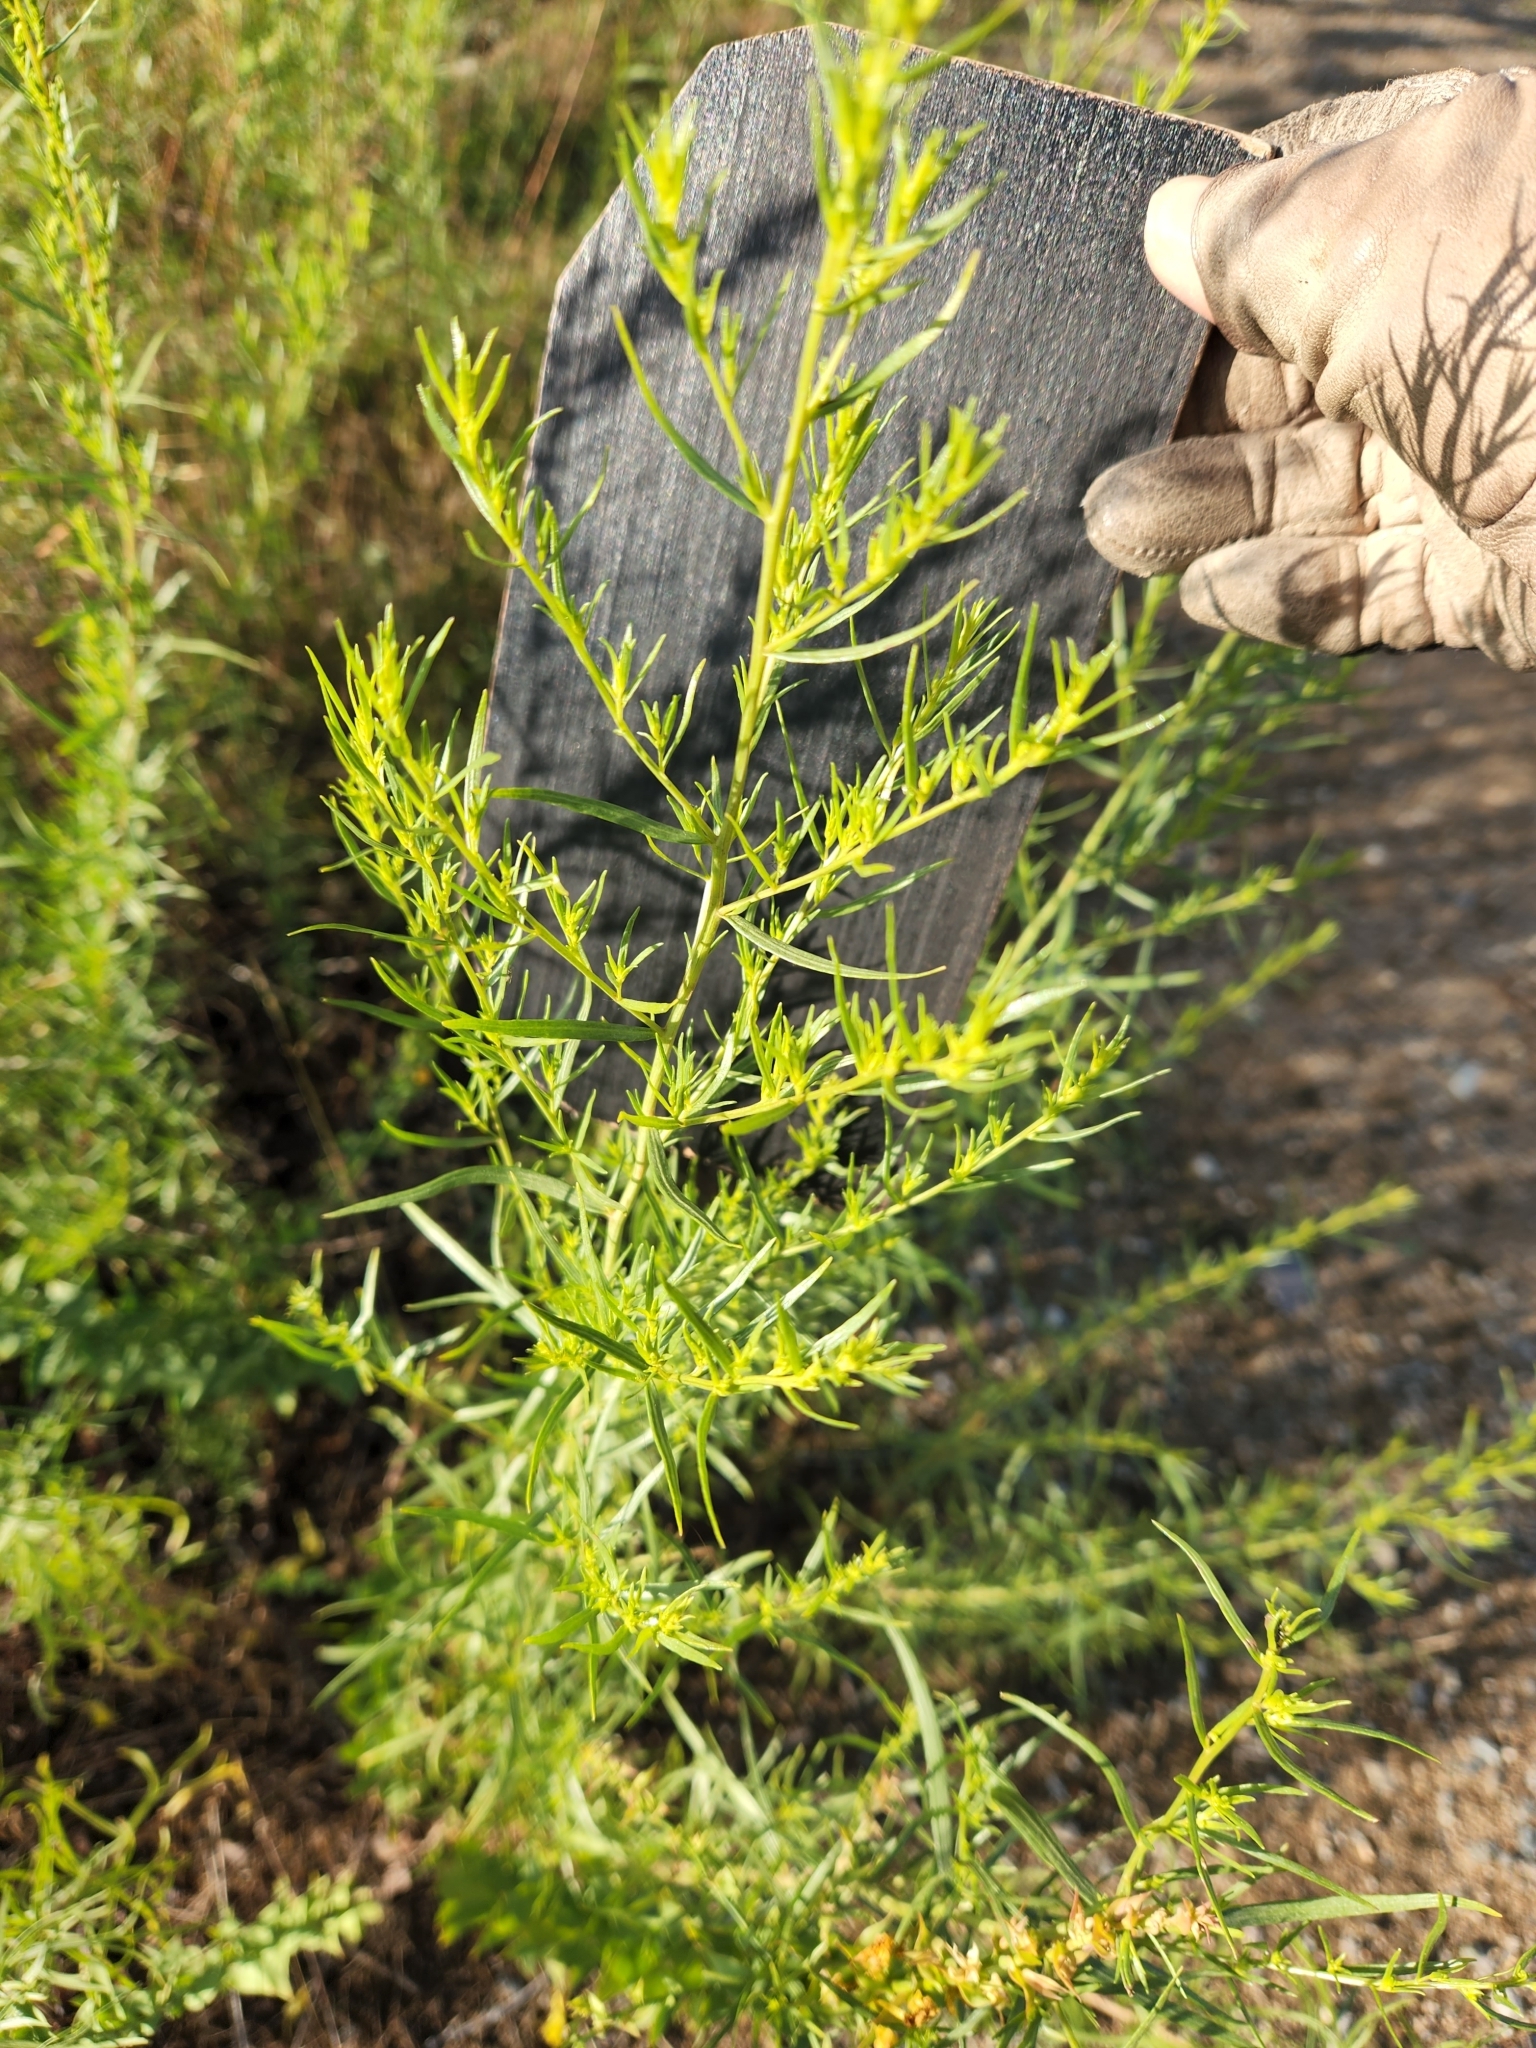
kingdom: Plantae
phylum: Tracheophyta
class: Magnoliopsida
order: Caryophyllales
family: Amaranthaceae
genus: Bassia
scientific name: Bassia scoparia
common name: Belvedere
